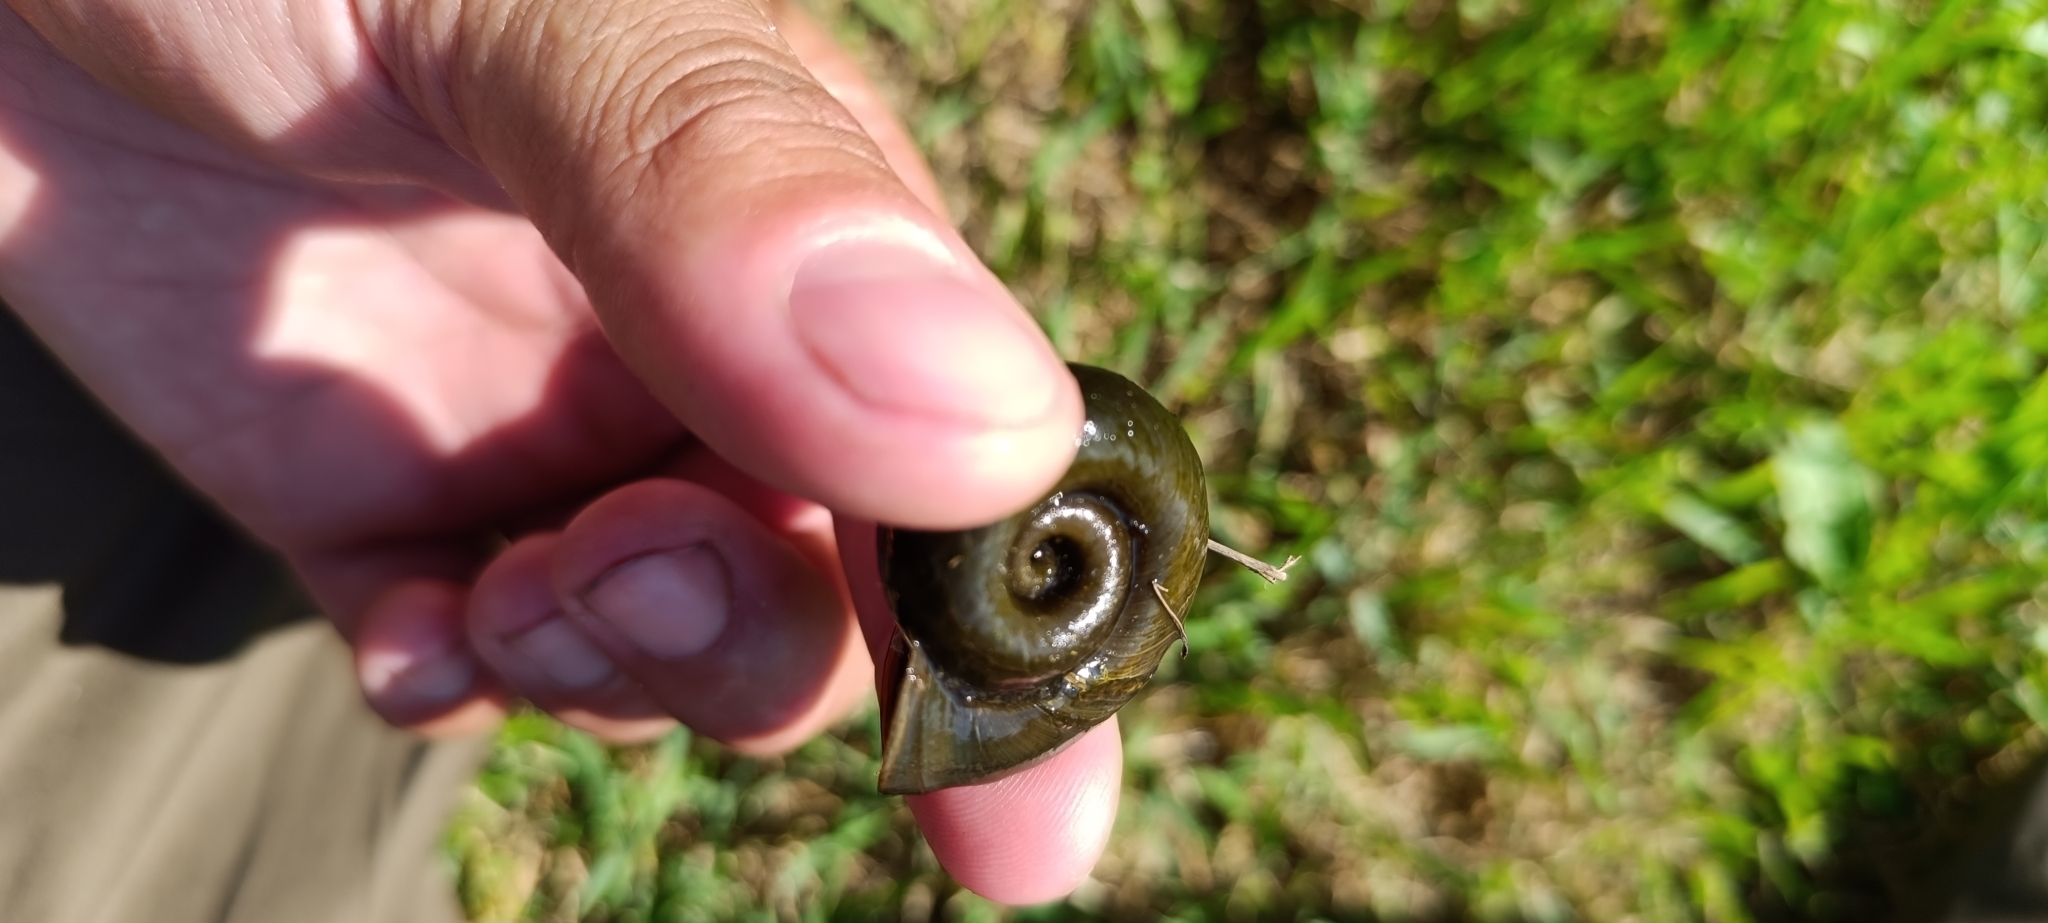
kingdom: Animalia
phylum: Mollusca
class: Gastropoda
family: Planorbidae
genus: Planorbarius
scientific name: Planorbarius corneus
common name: Great ramshorn
